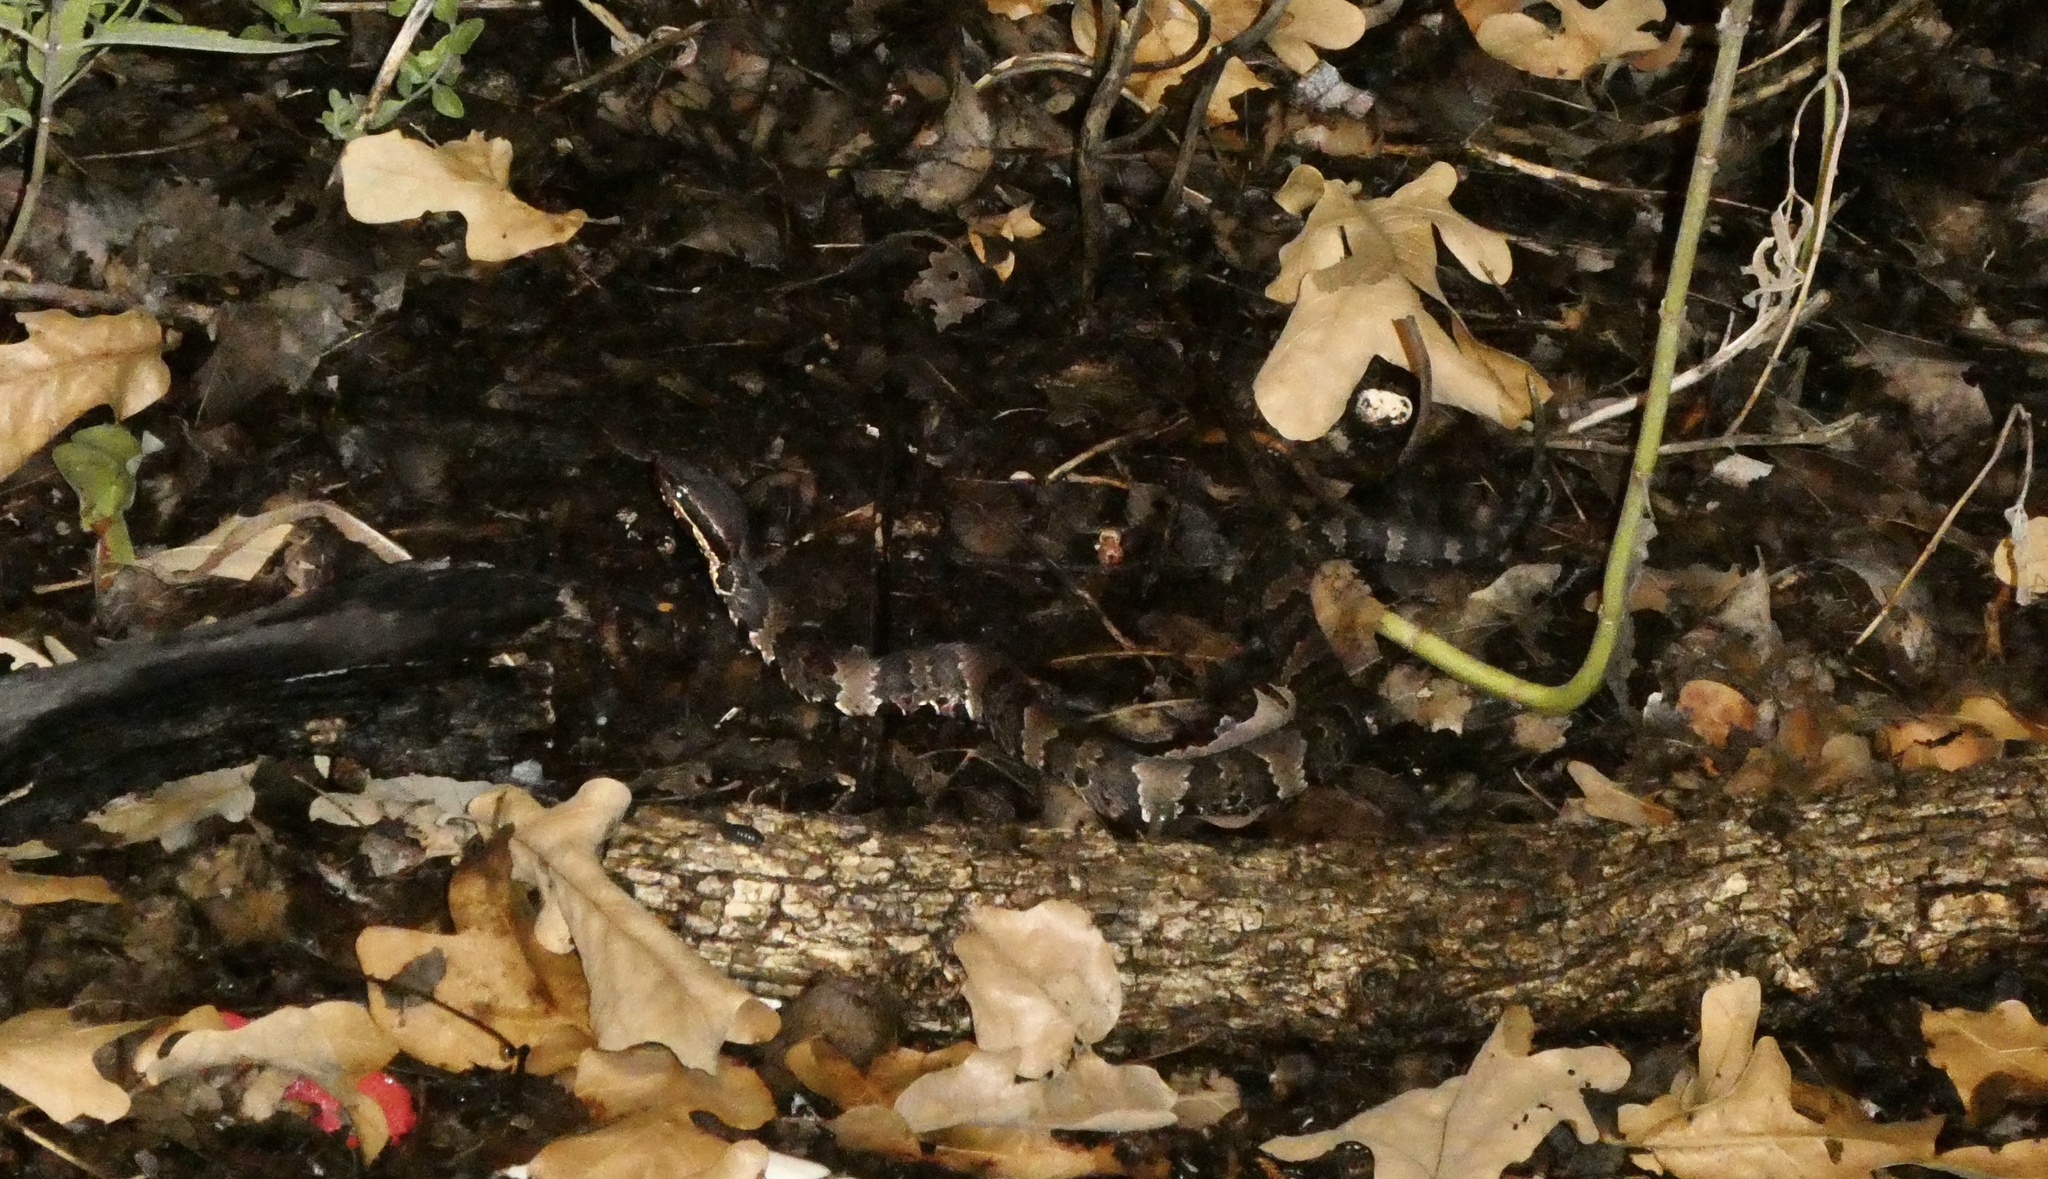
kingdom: Animalia
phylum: Chordata
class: Squamata
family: Viperidae
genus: Agkistrodon
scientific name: Agkistrodon piscivorus
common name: Cottonmouth
